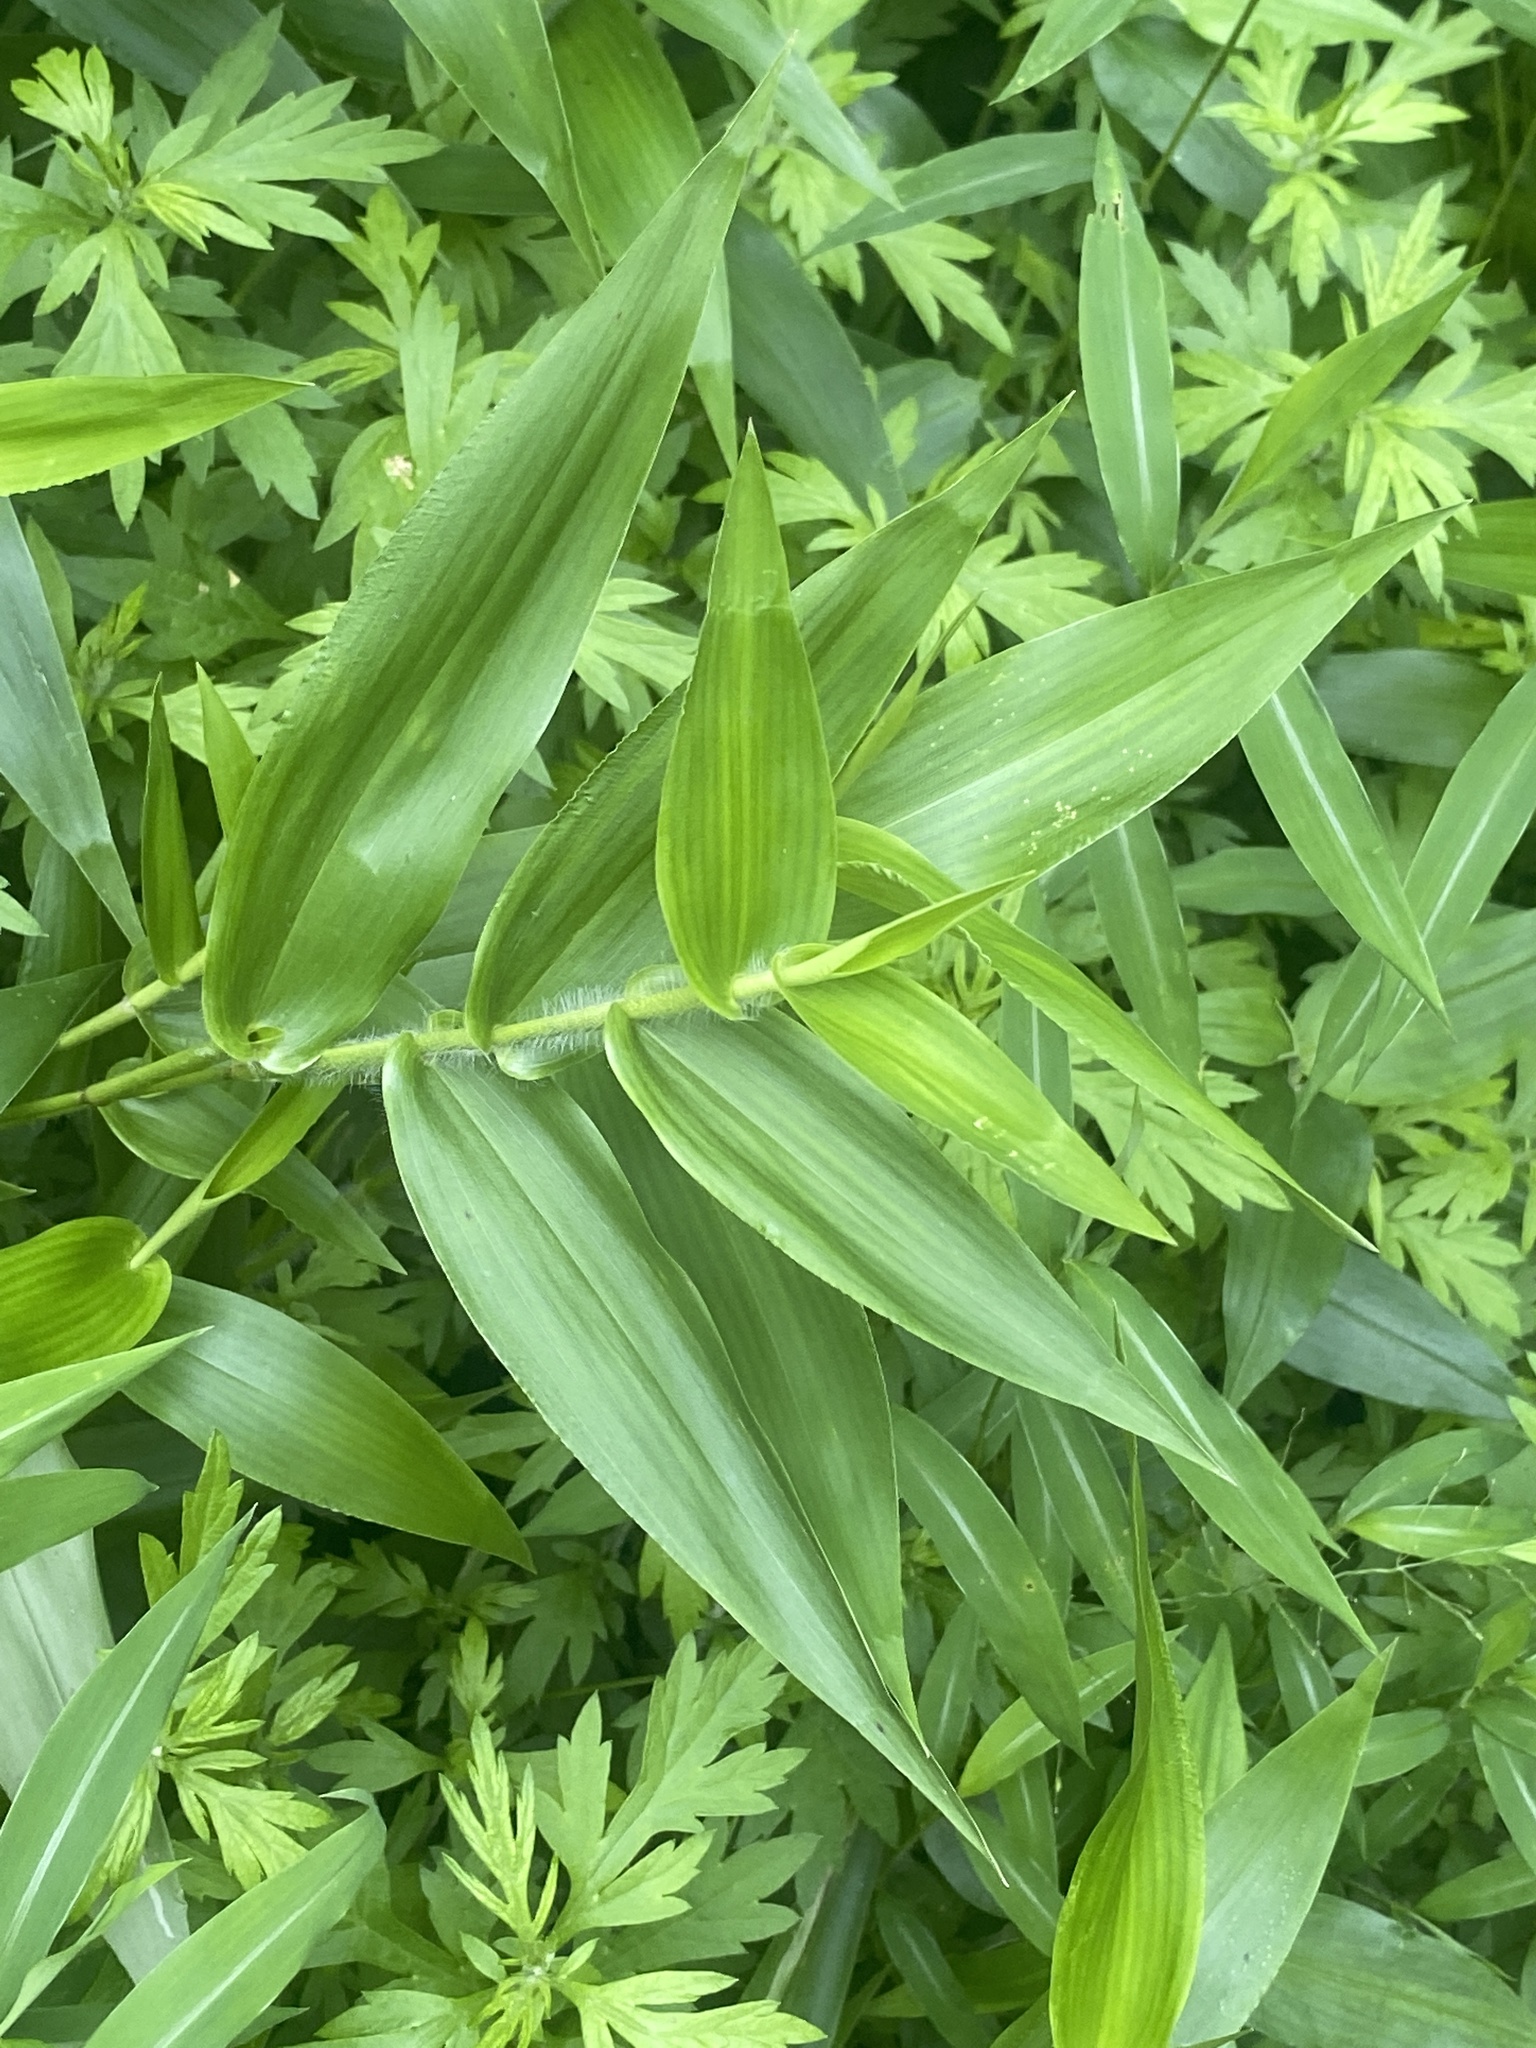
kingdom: Plantae
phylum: Tracheophyta
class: Liliopsida
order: Poales
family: Poaceae
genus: Dichanthelium
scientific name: Dichanthelium clandestinum
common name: Deer-tongue grass
